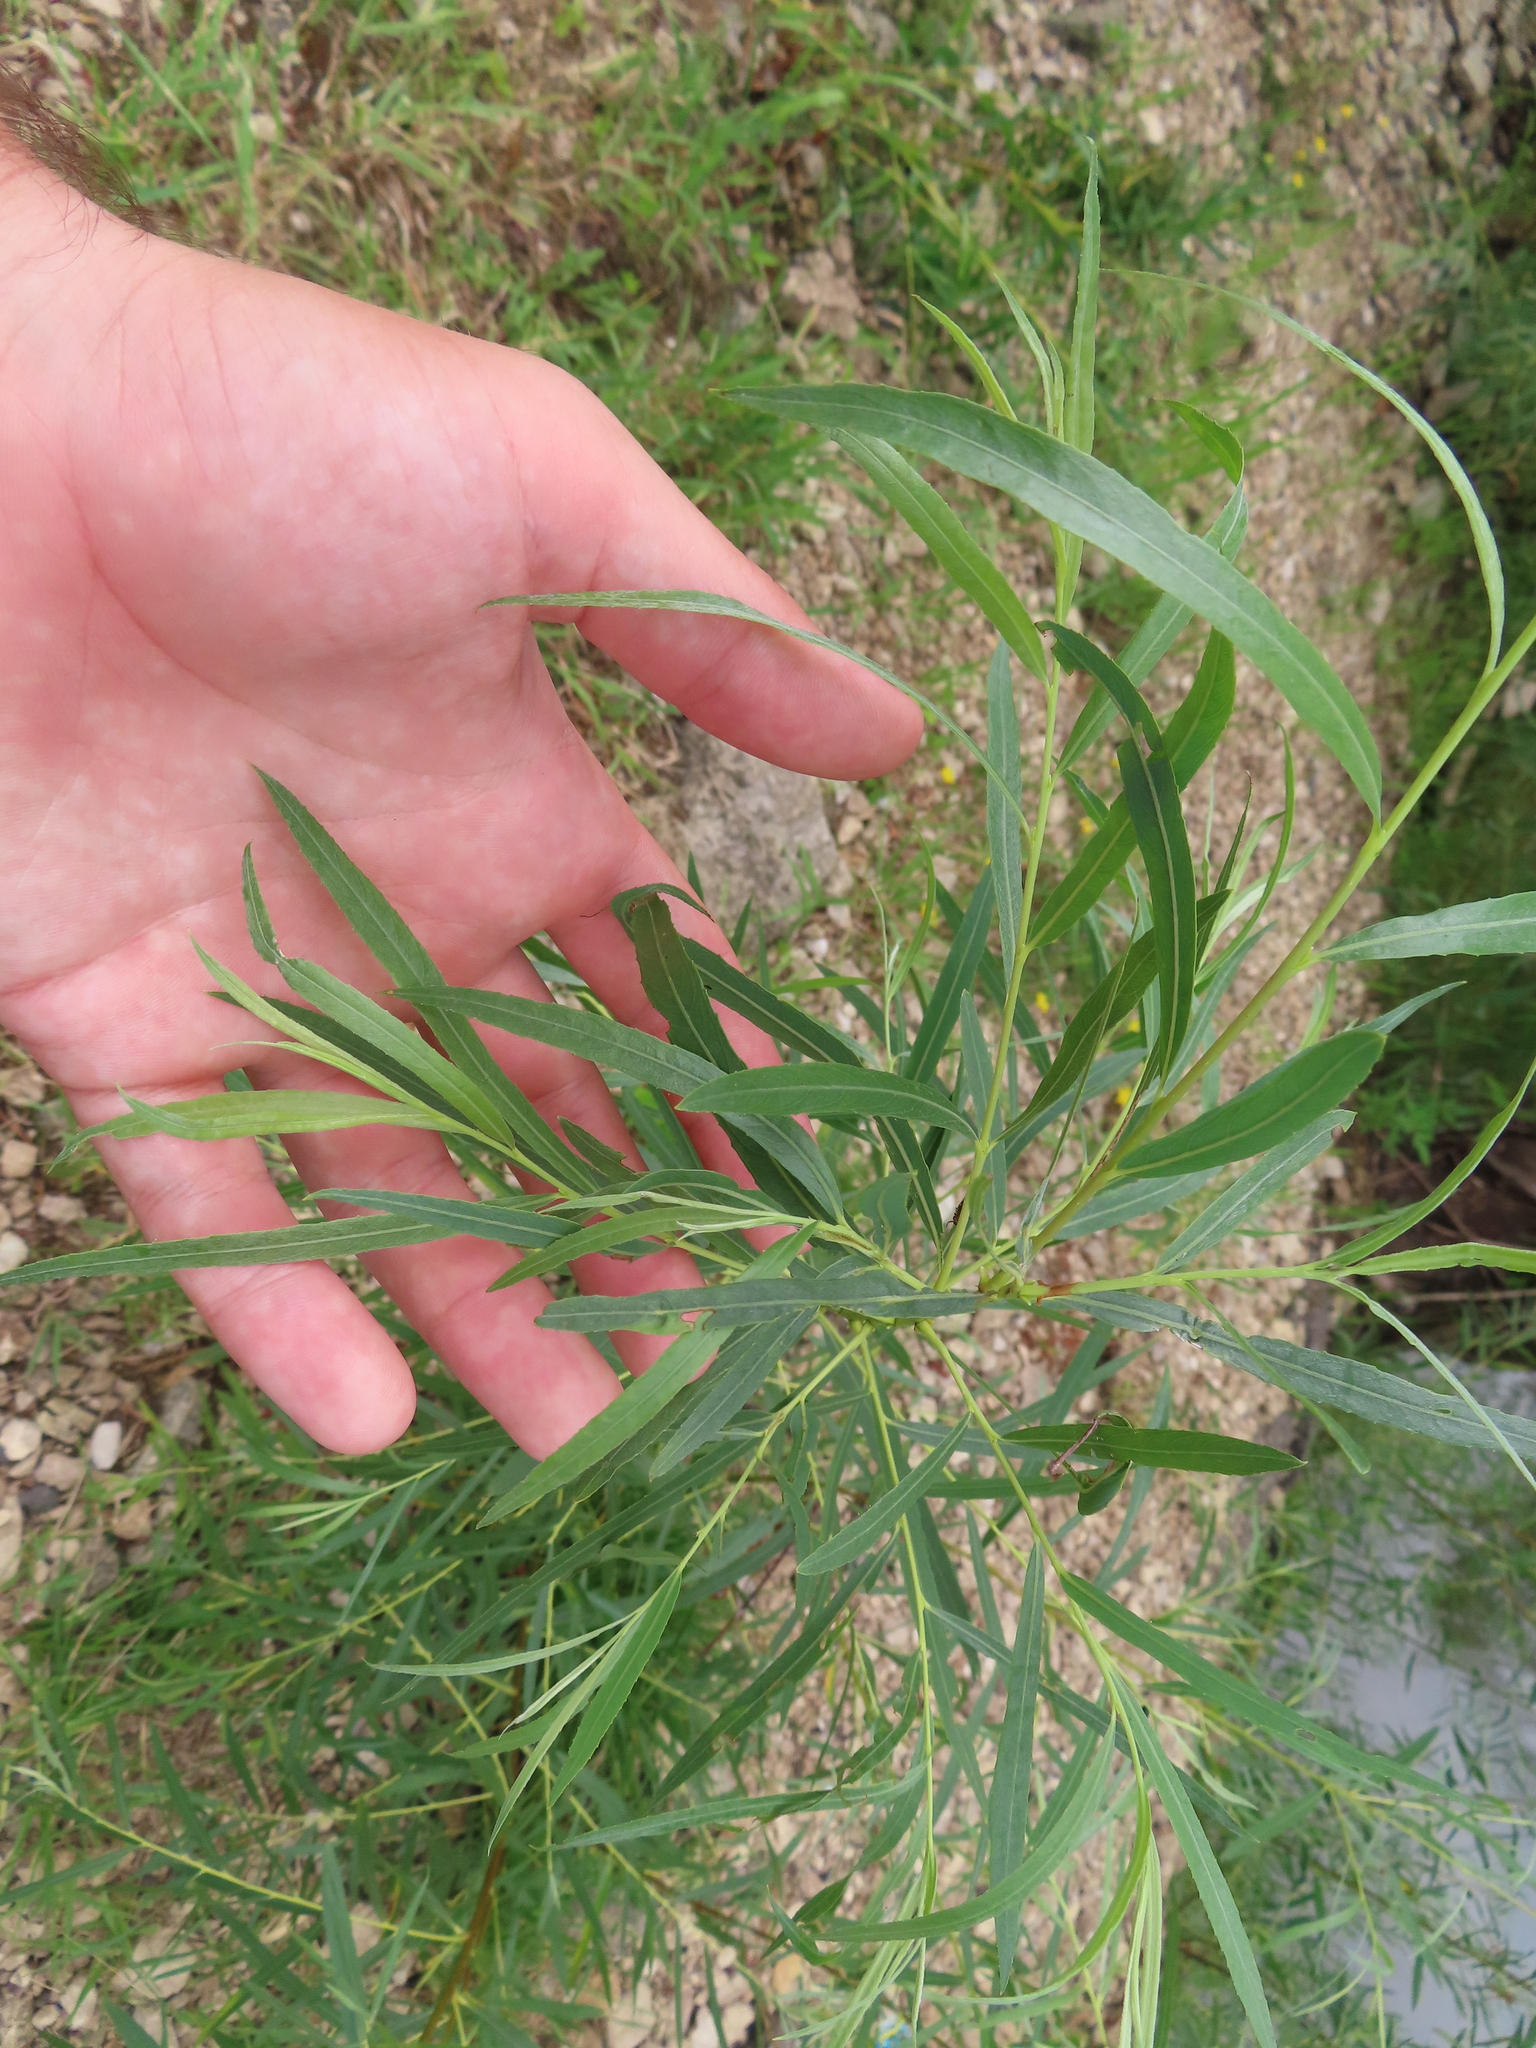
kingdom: Plantae
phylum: Tracheophyta
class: Magnoliopsida
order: Malpighiales
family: Salicaceae
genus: Salix
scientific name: Salix interior
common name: Sandbar willow
